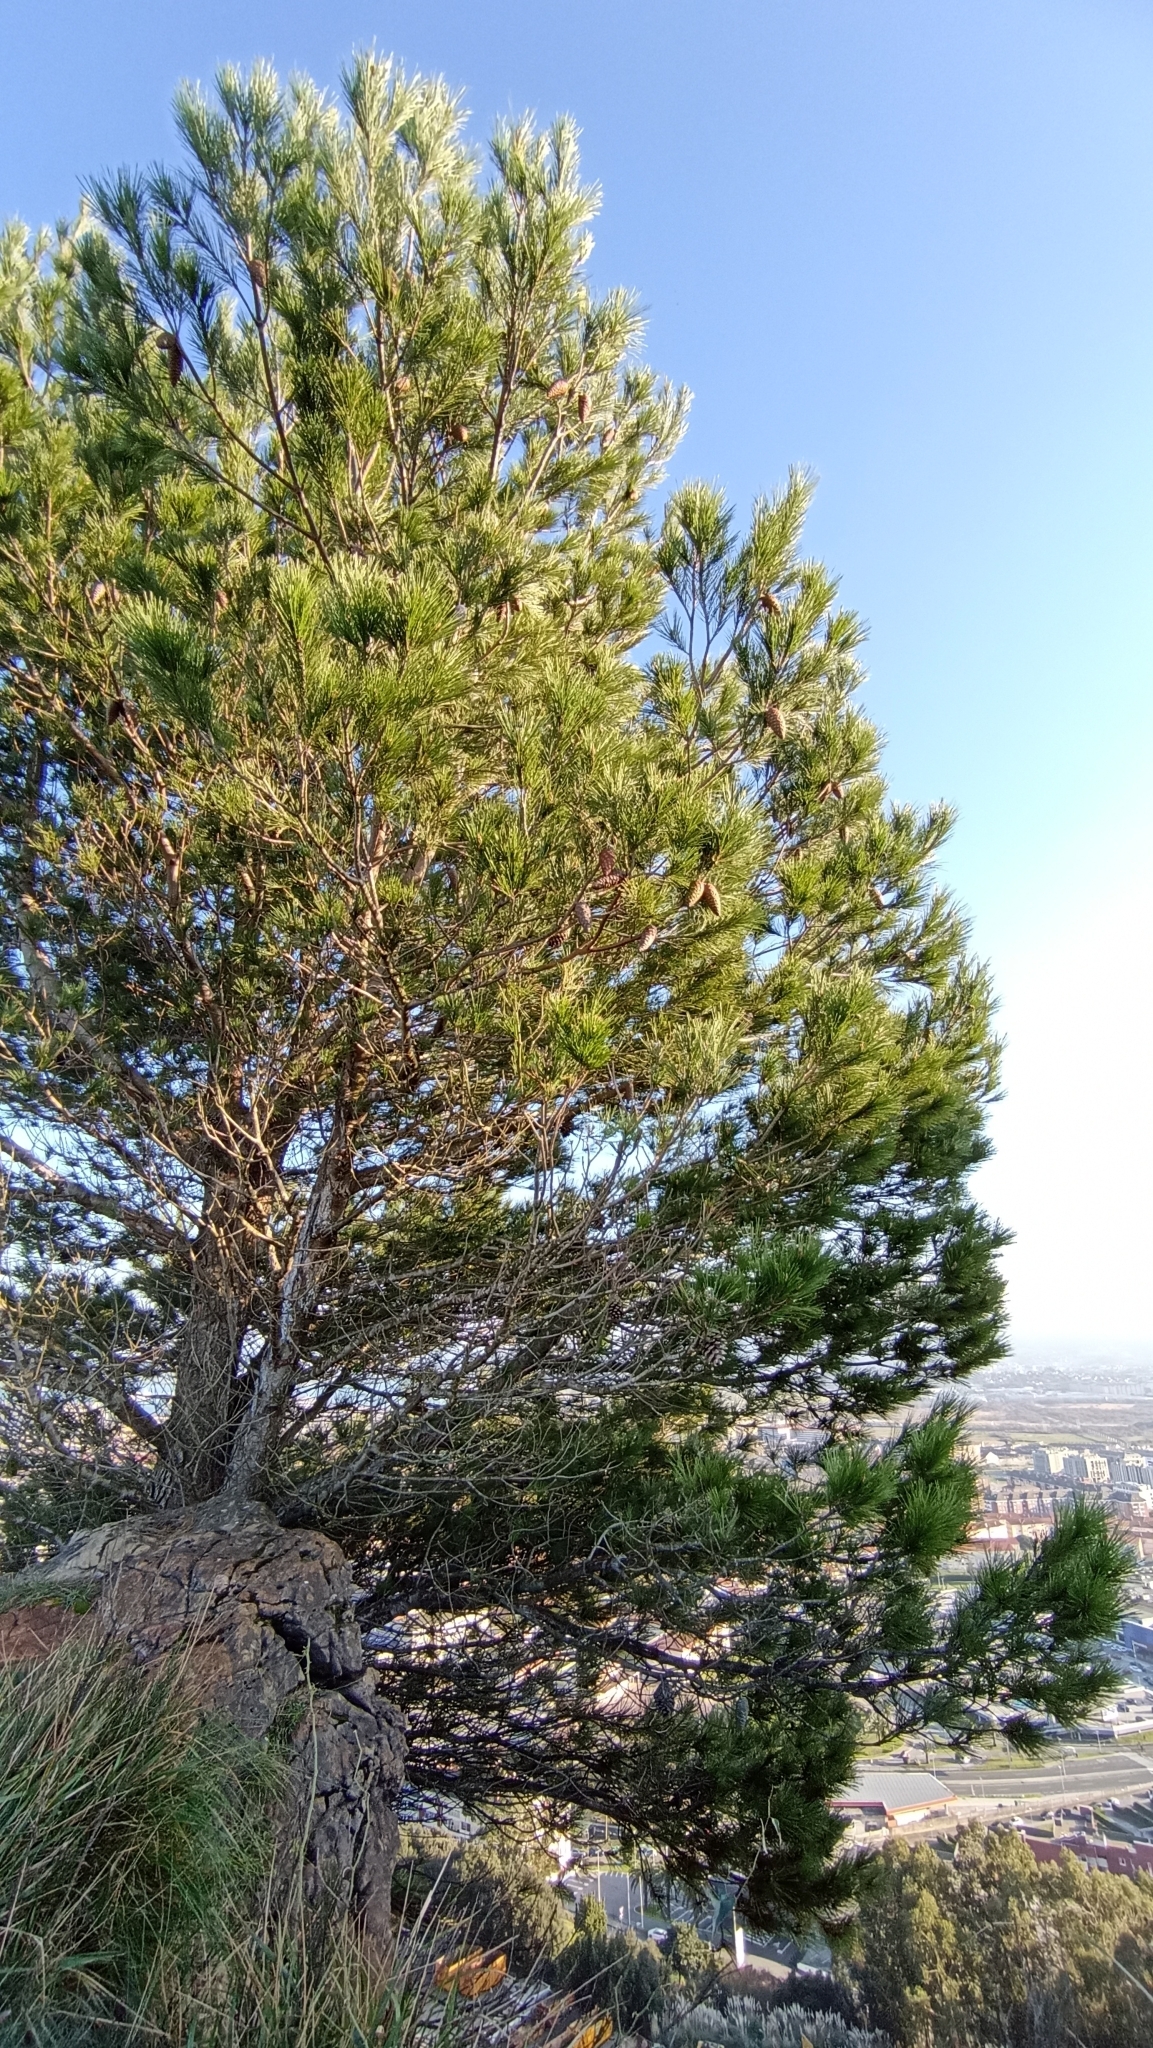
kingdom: Plantae
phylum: Tracheophyta
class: Pinopsida
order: Pinales
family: Pinaceae
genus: Pinus
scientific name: Pinus halepensis
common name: Aleppo pine
